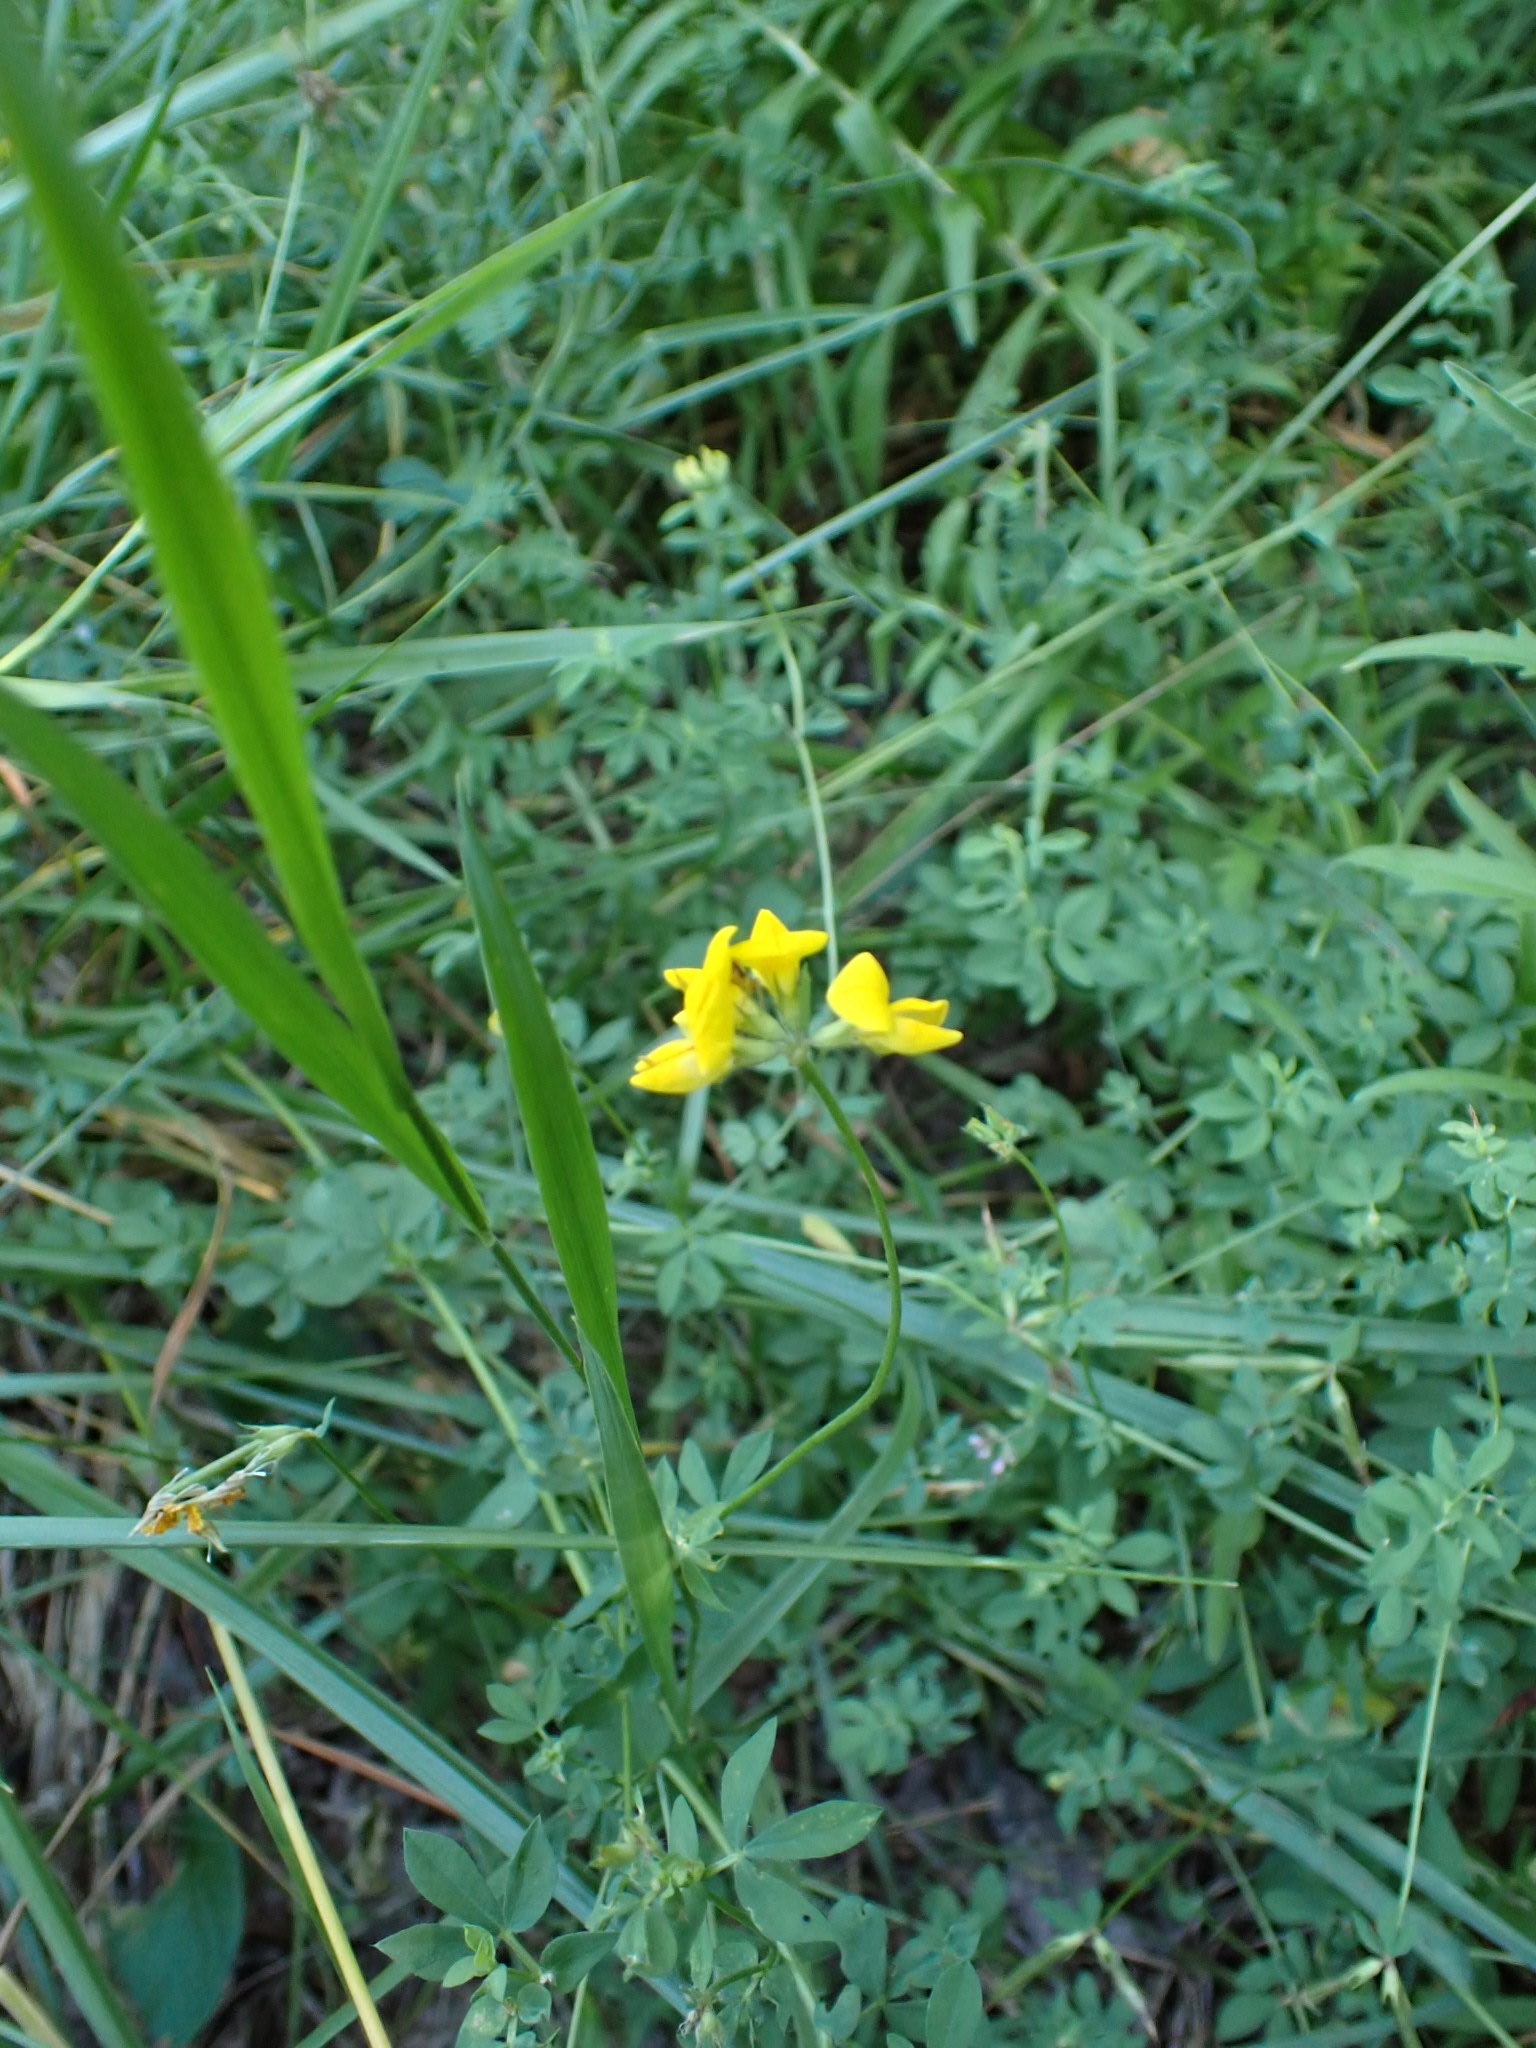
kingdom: Plantae
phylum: Tracheophyta
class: Magnoliopsida
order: Fabales
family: Fabaceae
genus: Lotus
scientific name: Lotus corniculatus
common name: Common bird's-foot-trefoil
